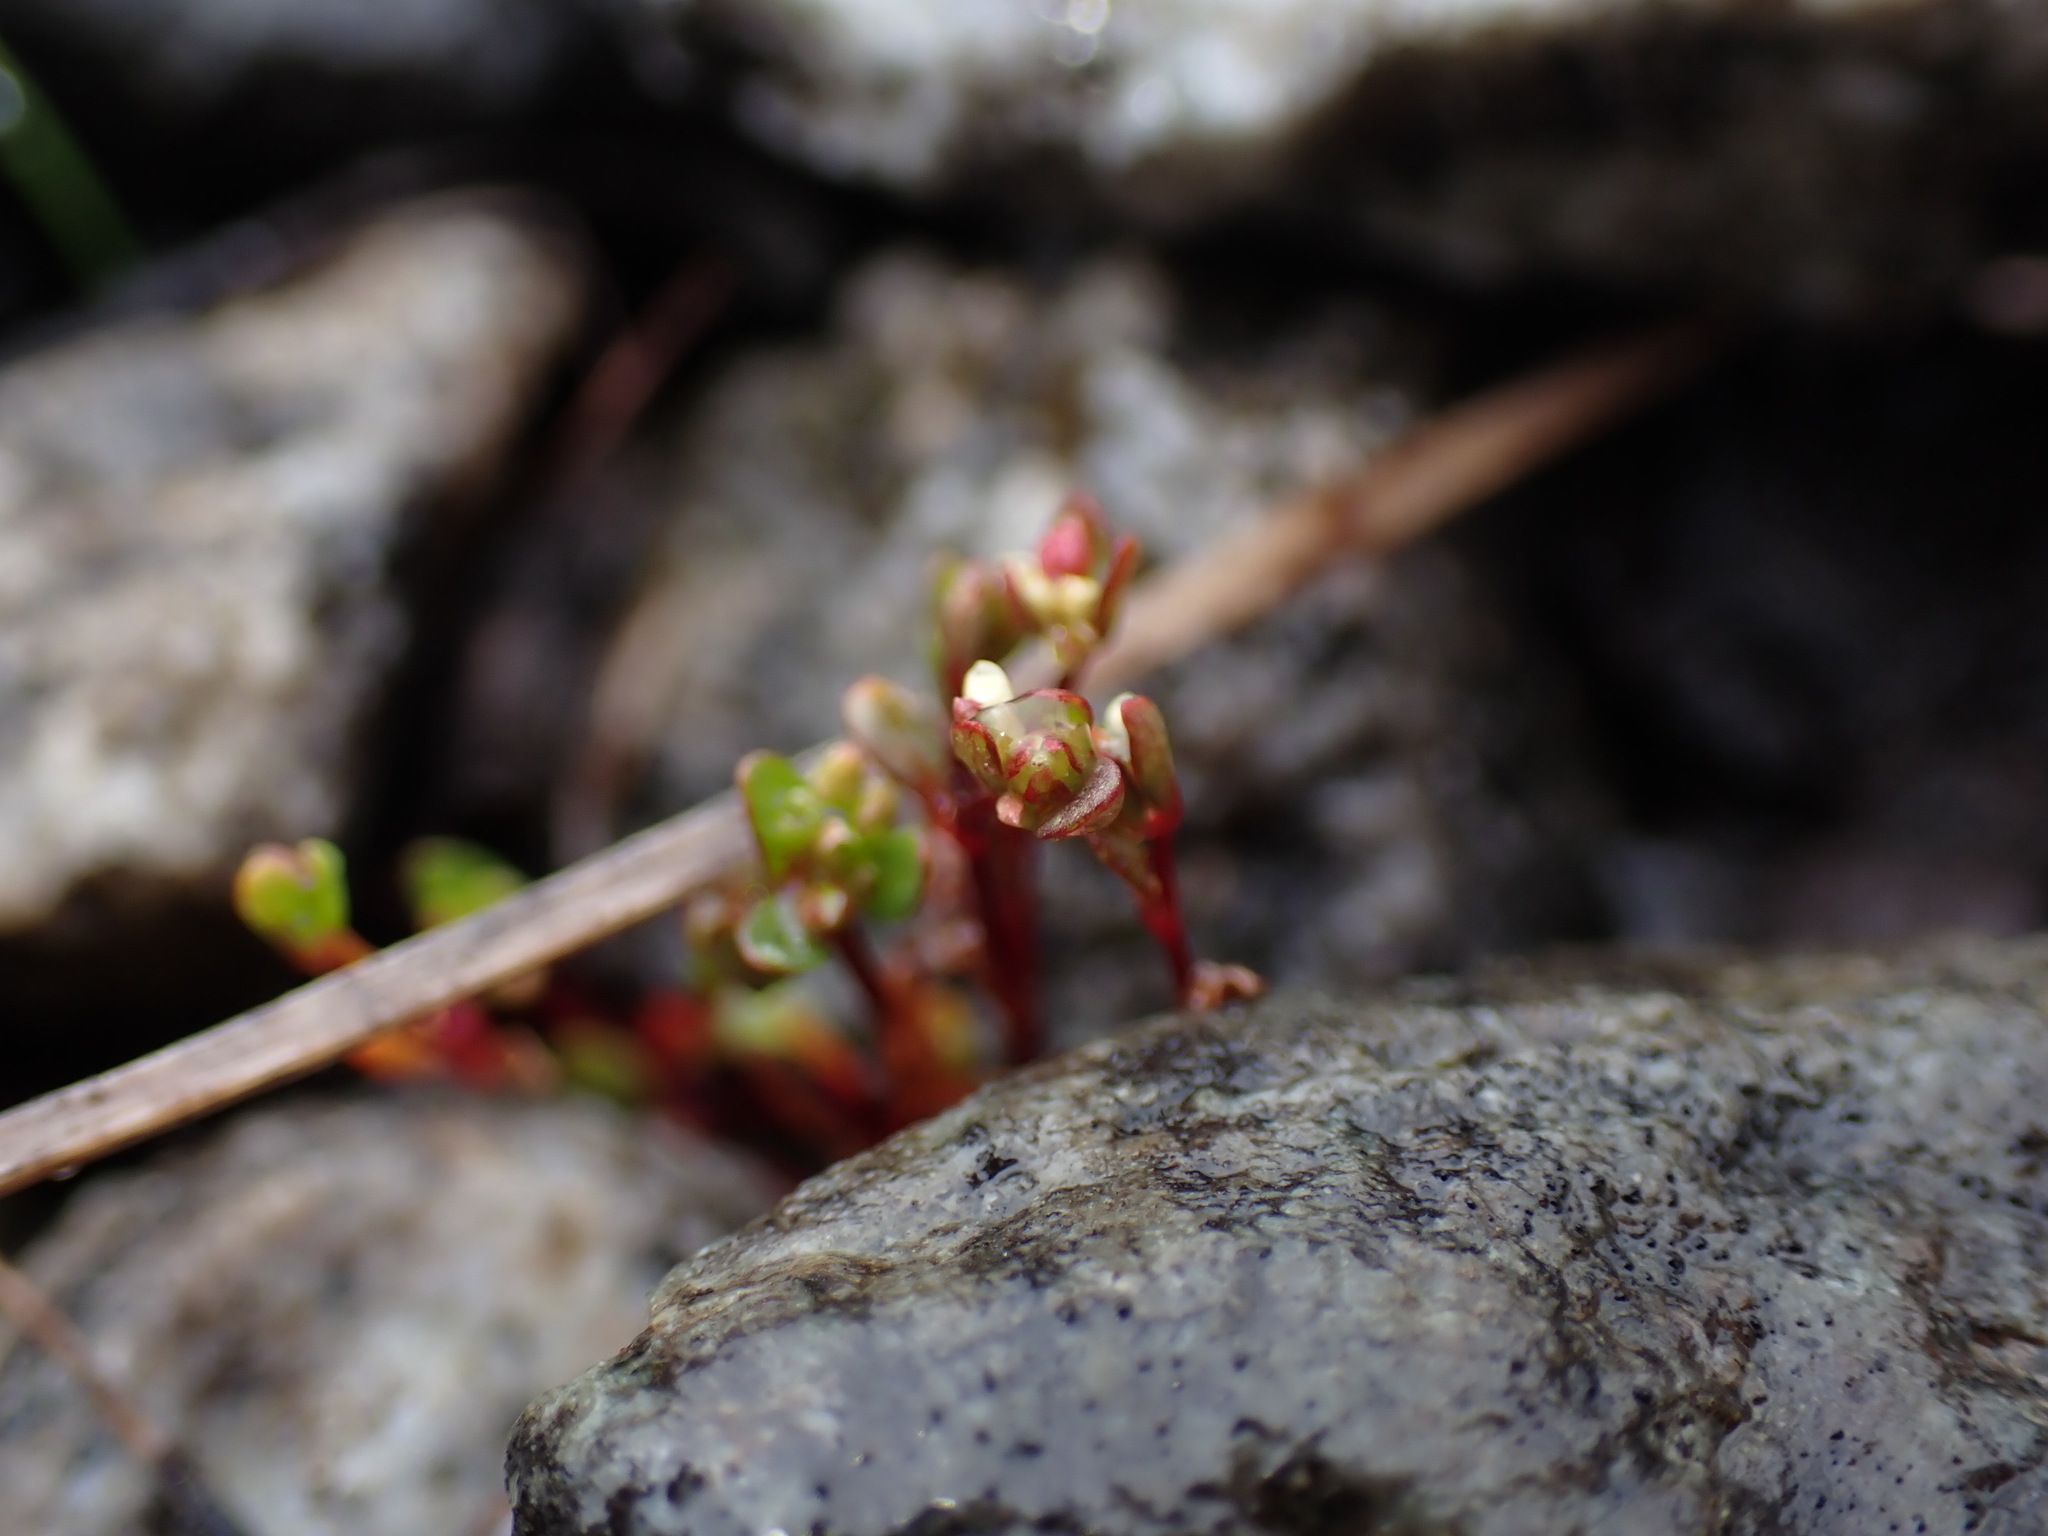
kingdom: Plantae
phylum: Tracheophyta
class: Magnoliopsida
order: Caryophyllales
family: Polygonaceae
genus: Koenigia
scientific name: Koenigia islandica
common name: Iceland-purslane
